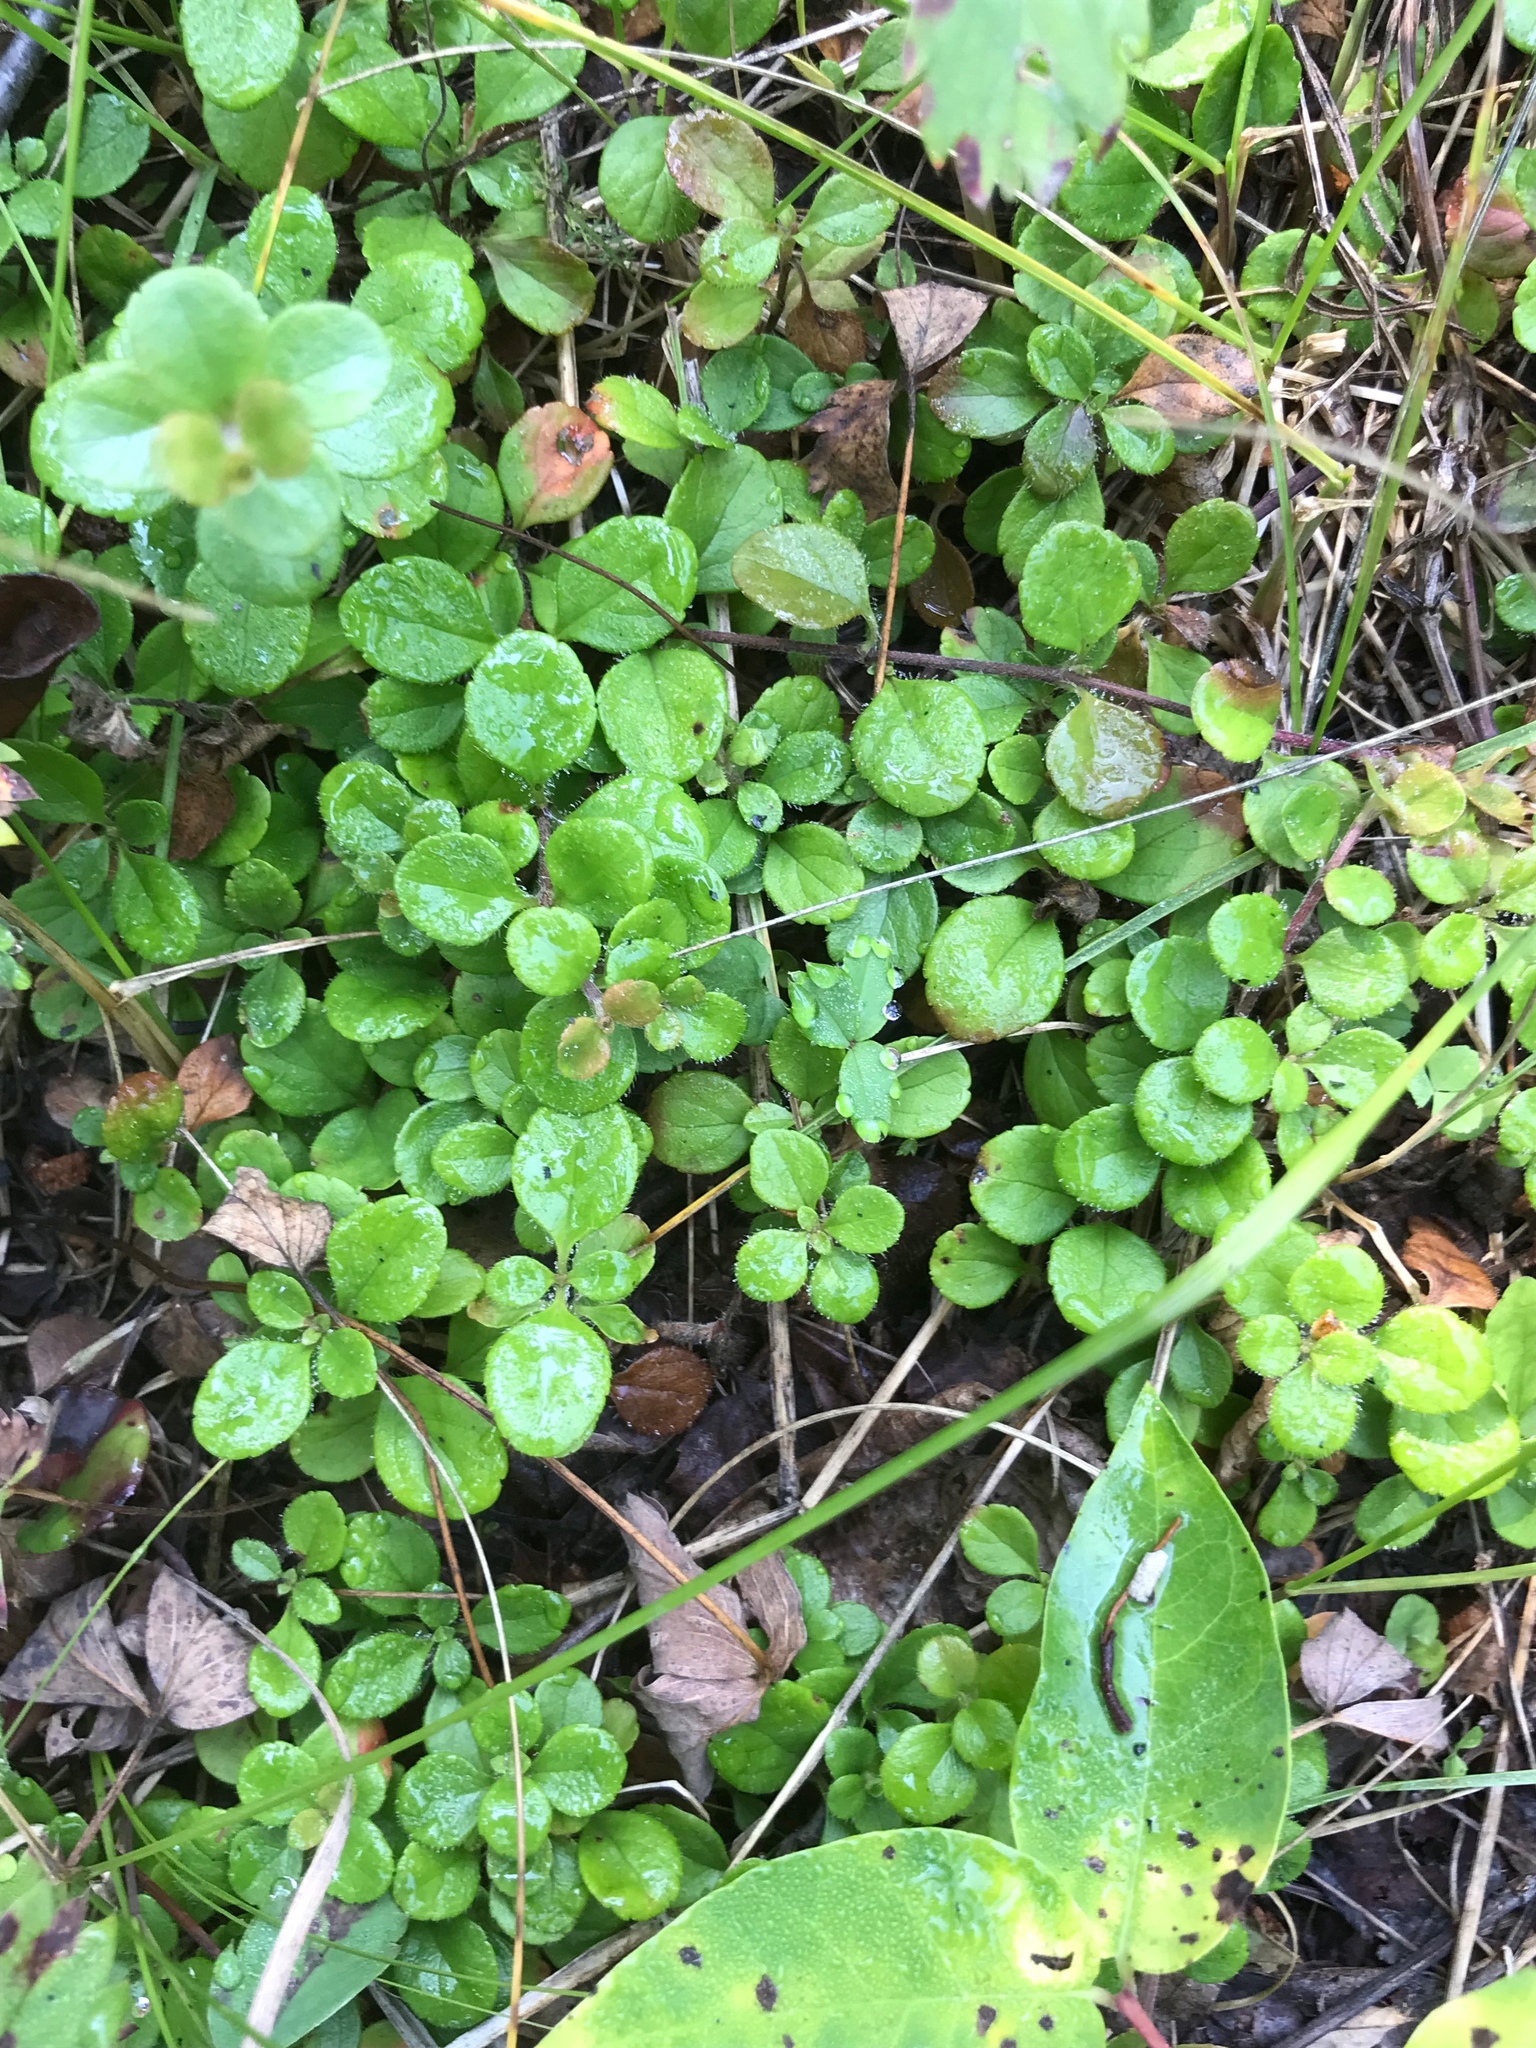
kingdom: Plantae
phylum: Tracheophyta
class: Magnoliopsida
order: Dipsacales
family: Caprifoliaceae
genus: Linnaea
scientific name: Linnaea borealis
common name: Twinflower
